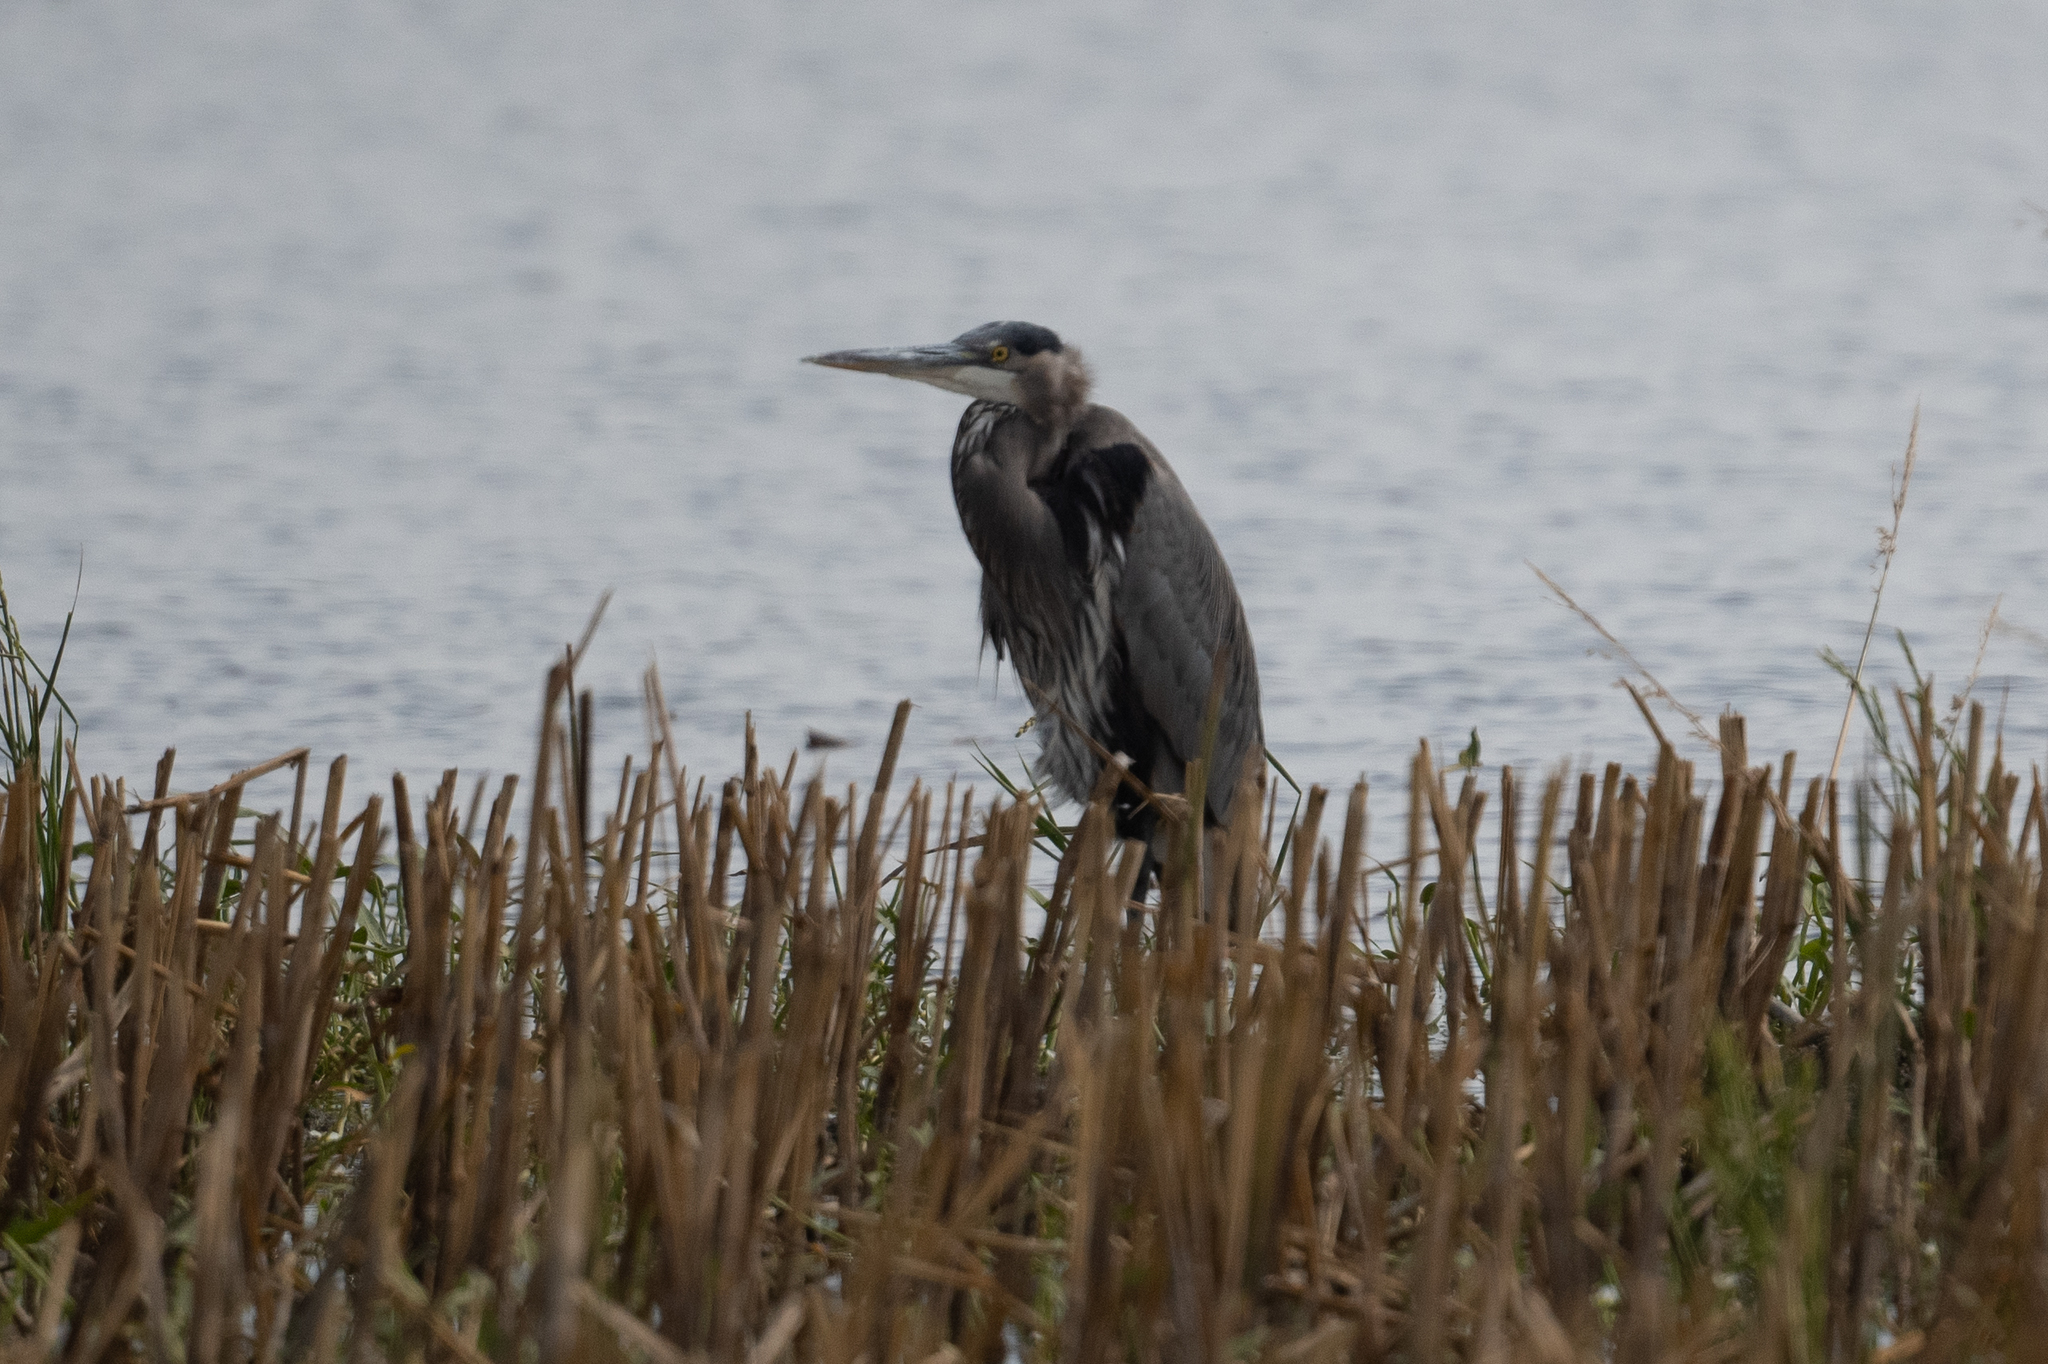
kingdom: Animalia
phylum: Chordata
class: Aves
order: Pelecaniformes
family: Ardeidae
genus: Ardea
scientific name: Ardea herodias
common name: Great blue heron
